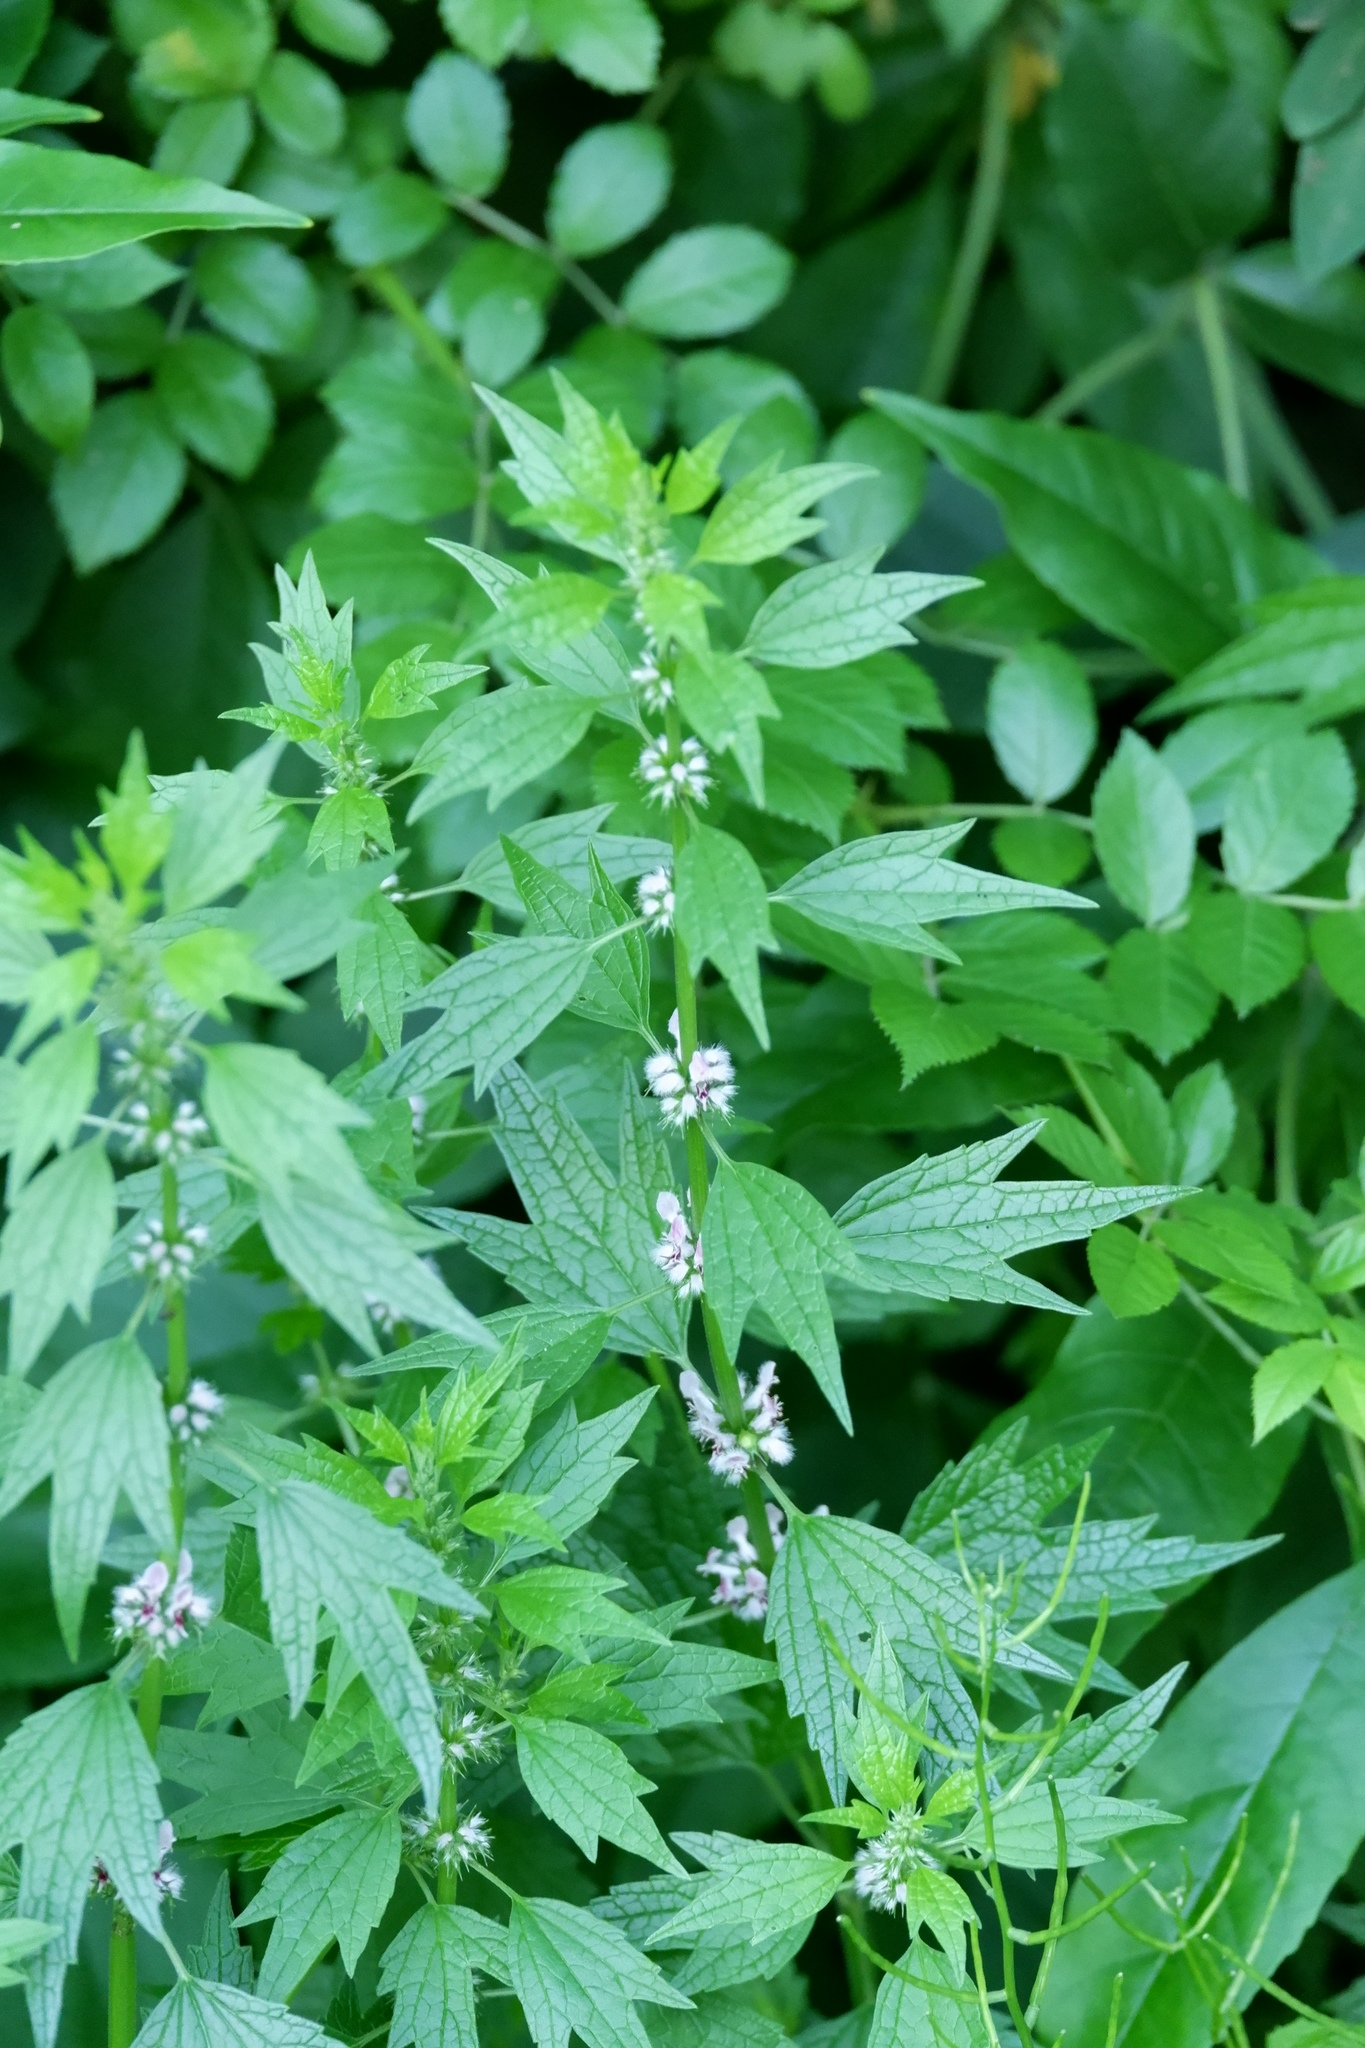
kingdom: Plantae
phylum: Tracheophyta
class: Magnoliopsida
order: Lamiales
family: Lamiaceae
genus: Leonurus
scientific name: Leonurus cardiaca
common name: Motherwort
